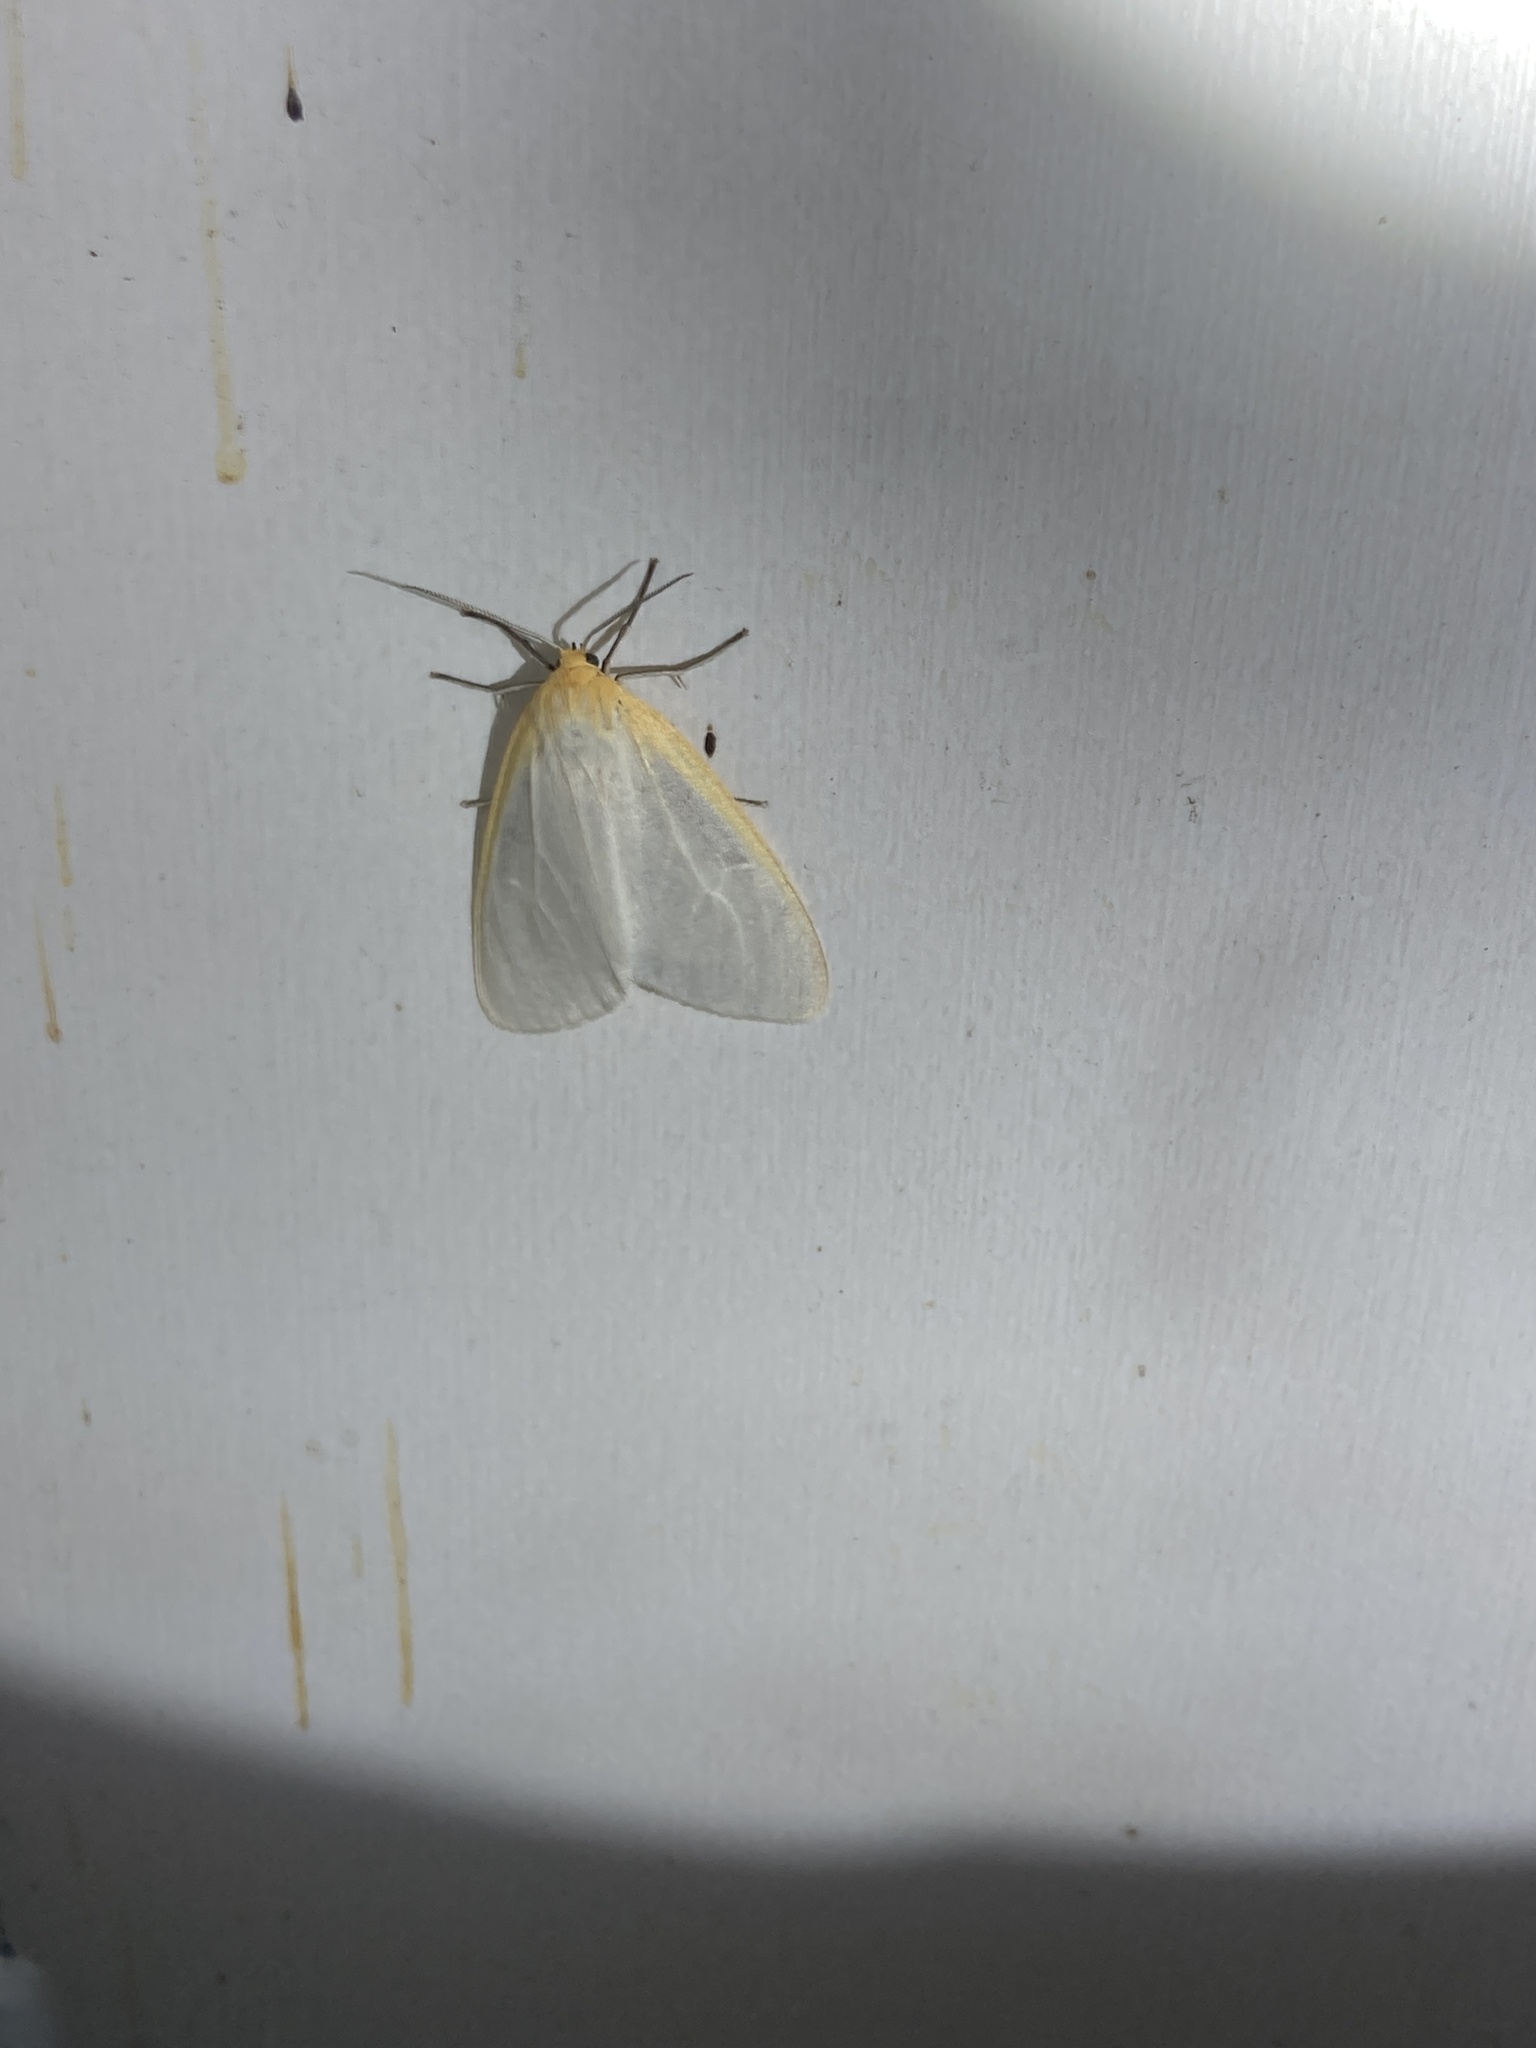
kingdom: Animalia
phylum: Arthropoda
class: Insecta
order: Lepidoptera
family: Erebidae
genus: Cycnia
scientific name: Cycnia tenera
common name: Delicate cycnia moth
